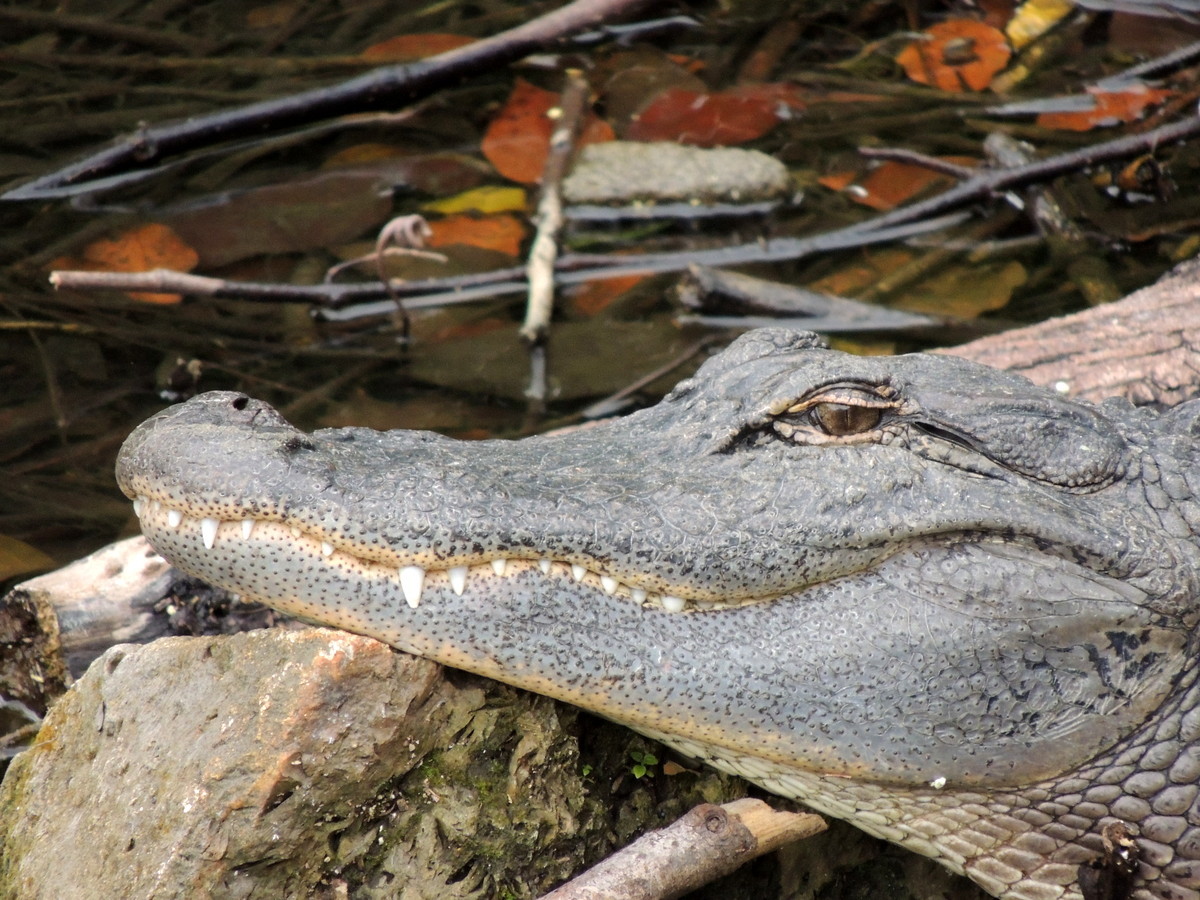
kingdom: Animalia
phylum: Chordata
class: Crocodylia
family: Alligatoridae
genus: Alligator
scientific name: Alligator mississippiensis
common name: American alligator
